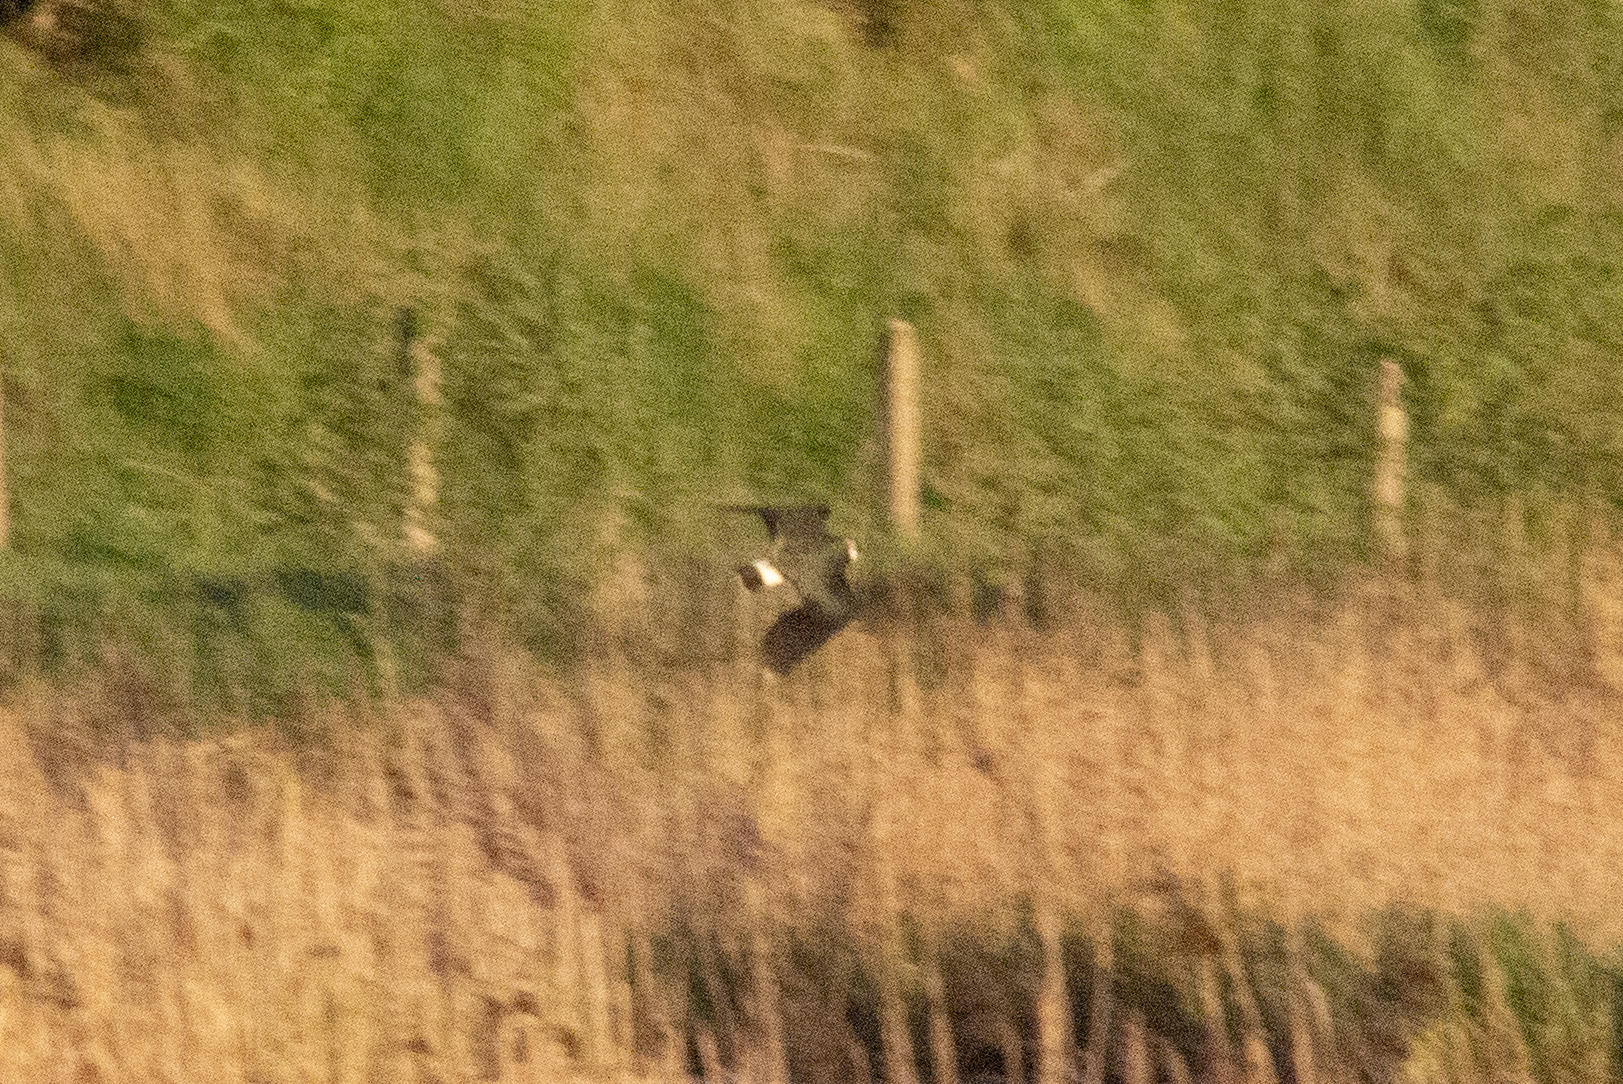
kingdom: Animalia
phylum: Chordata
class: Aves
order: Charadriiformes
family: Charadriidae
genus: Vanellus
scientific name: Vanellus vanellus
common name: Northern lapwing
